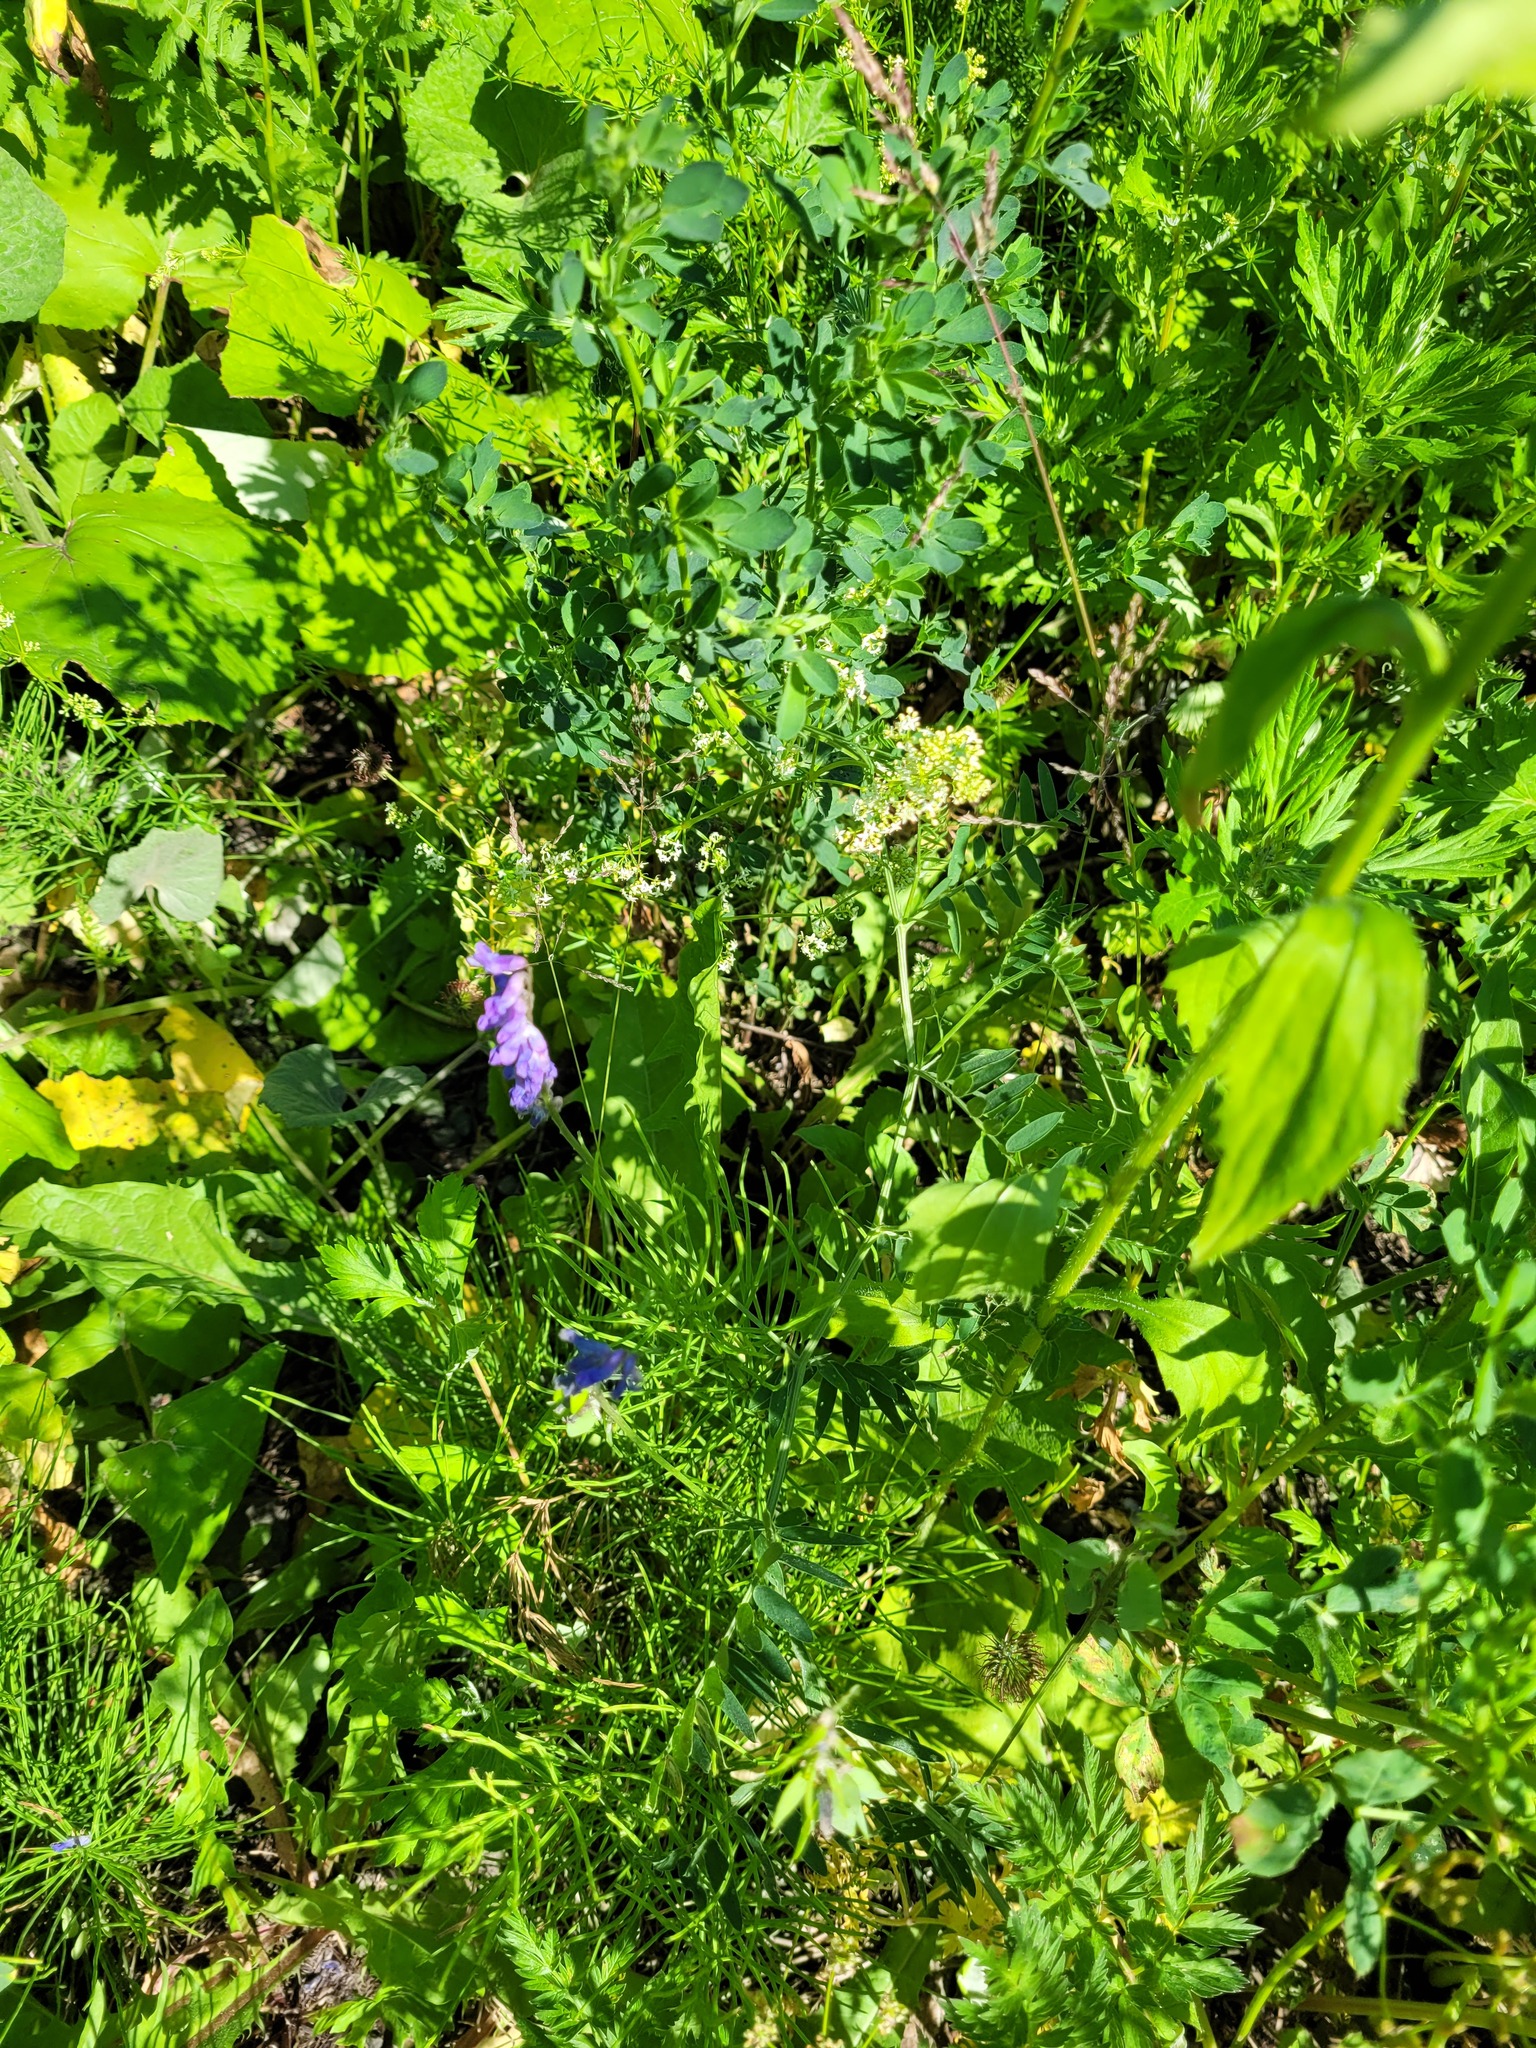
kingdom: Plantae
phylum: Tracheophyta
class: Magnoliopsida
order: Fabales
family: Fabaceae
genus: Vicia
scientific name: Vicia cracca
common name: Bird vetch
